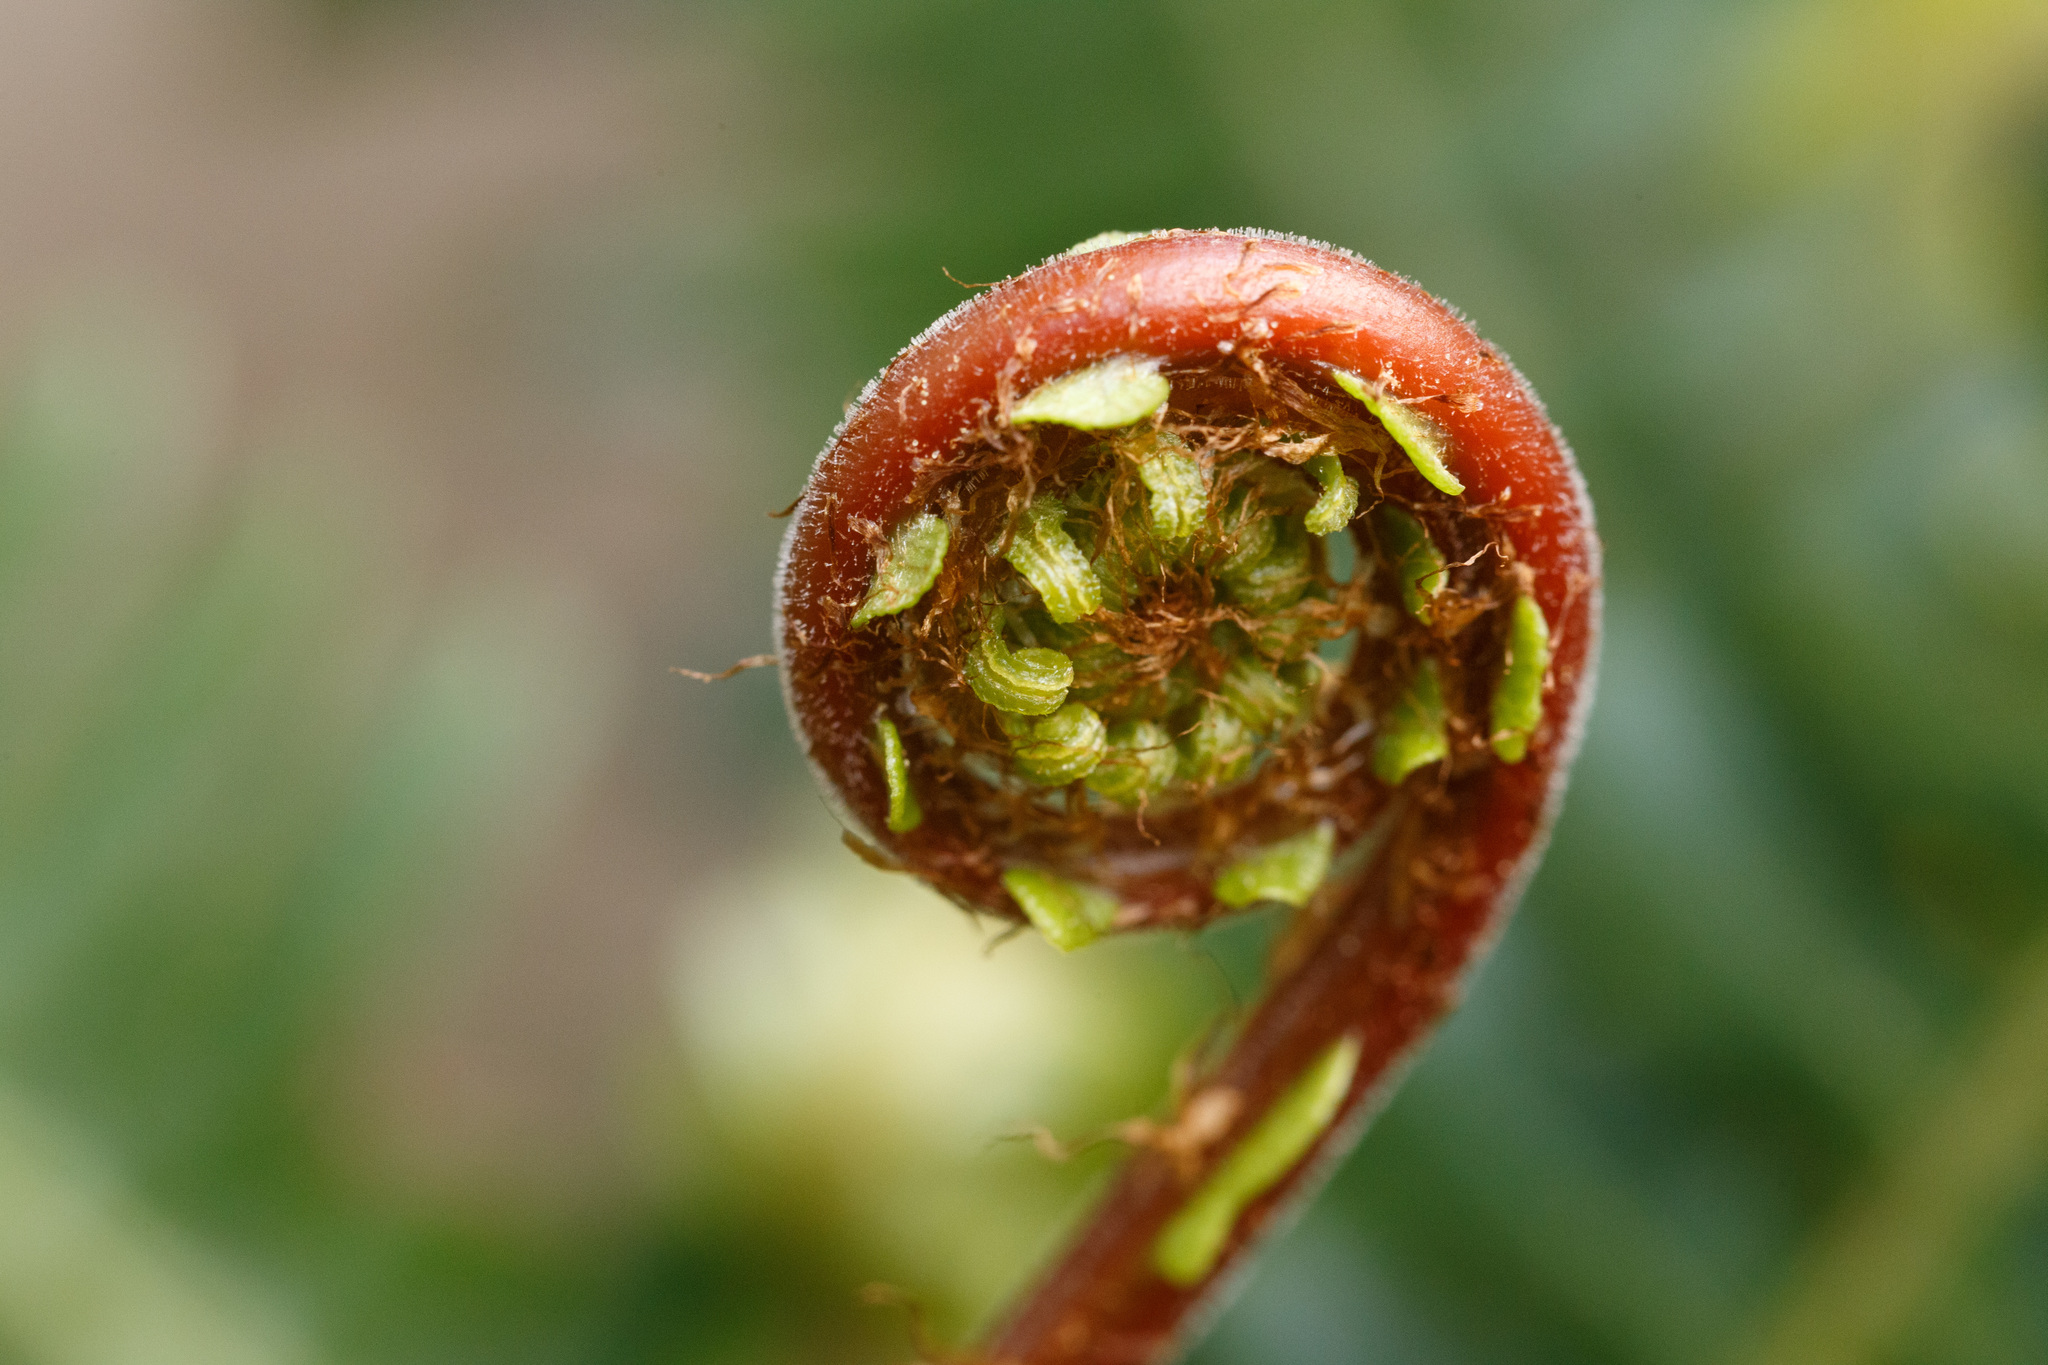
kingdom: Plantae
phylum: Tracheophyta
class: Polypodiopsida
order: Polypodiales
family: Blechnaceae
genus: Struthiopteris
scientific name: Struthiopteris spicant
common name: Deer fern
